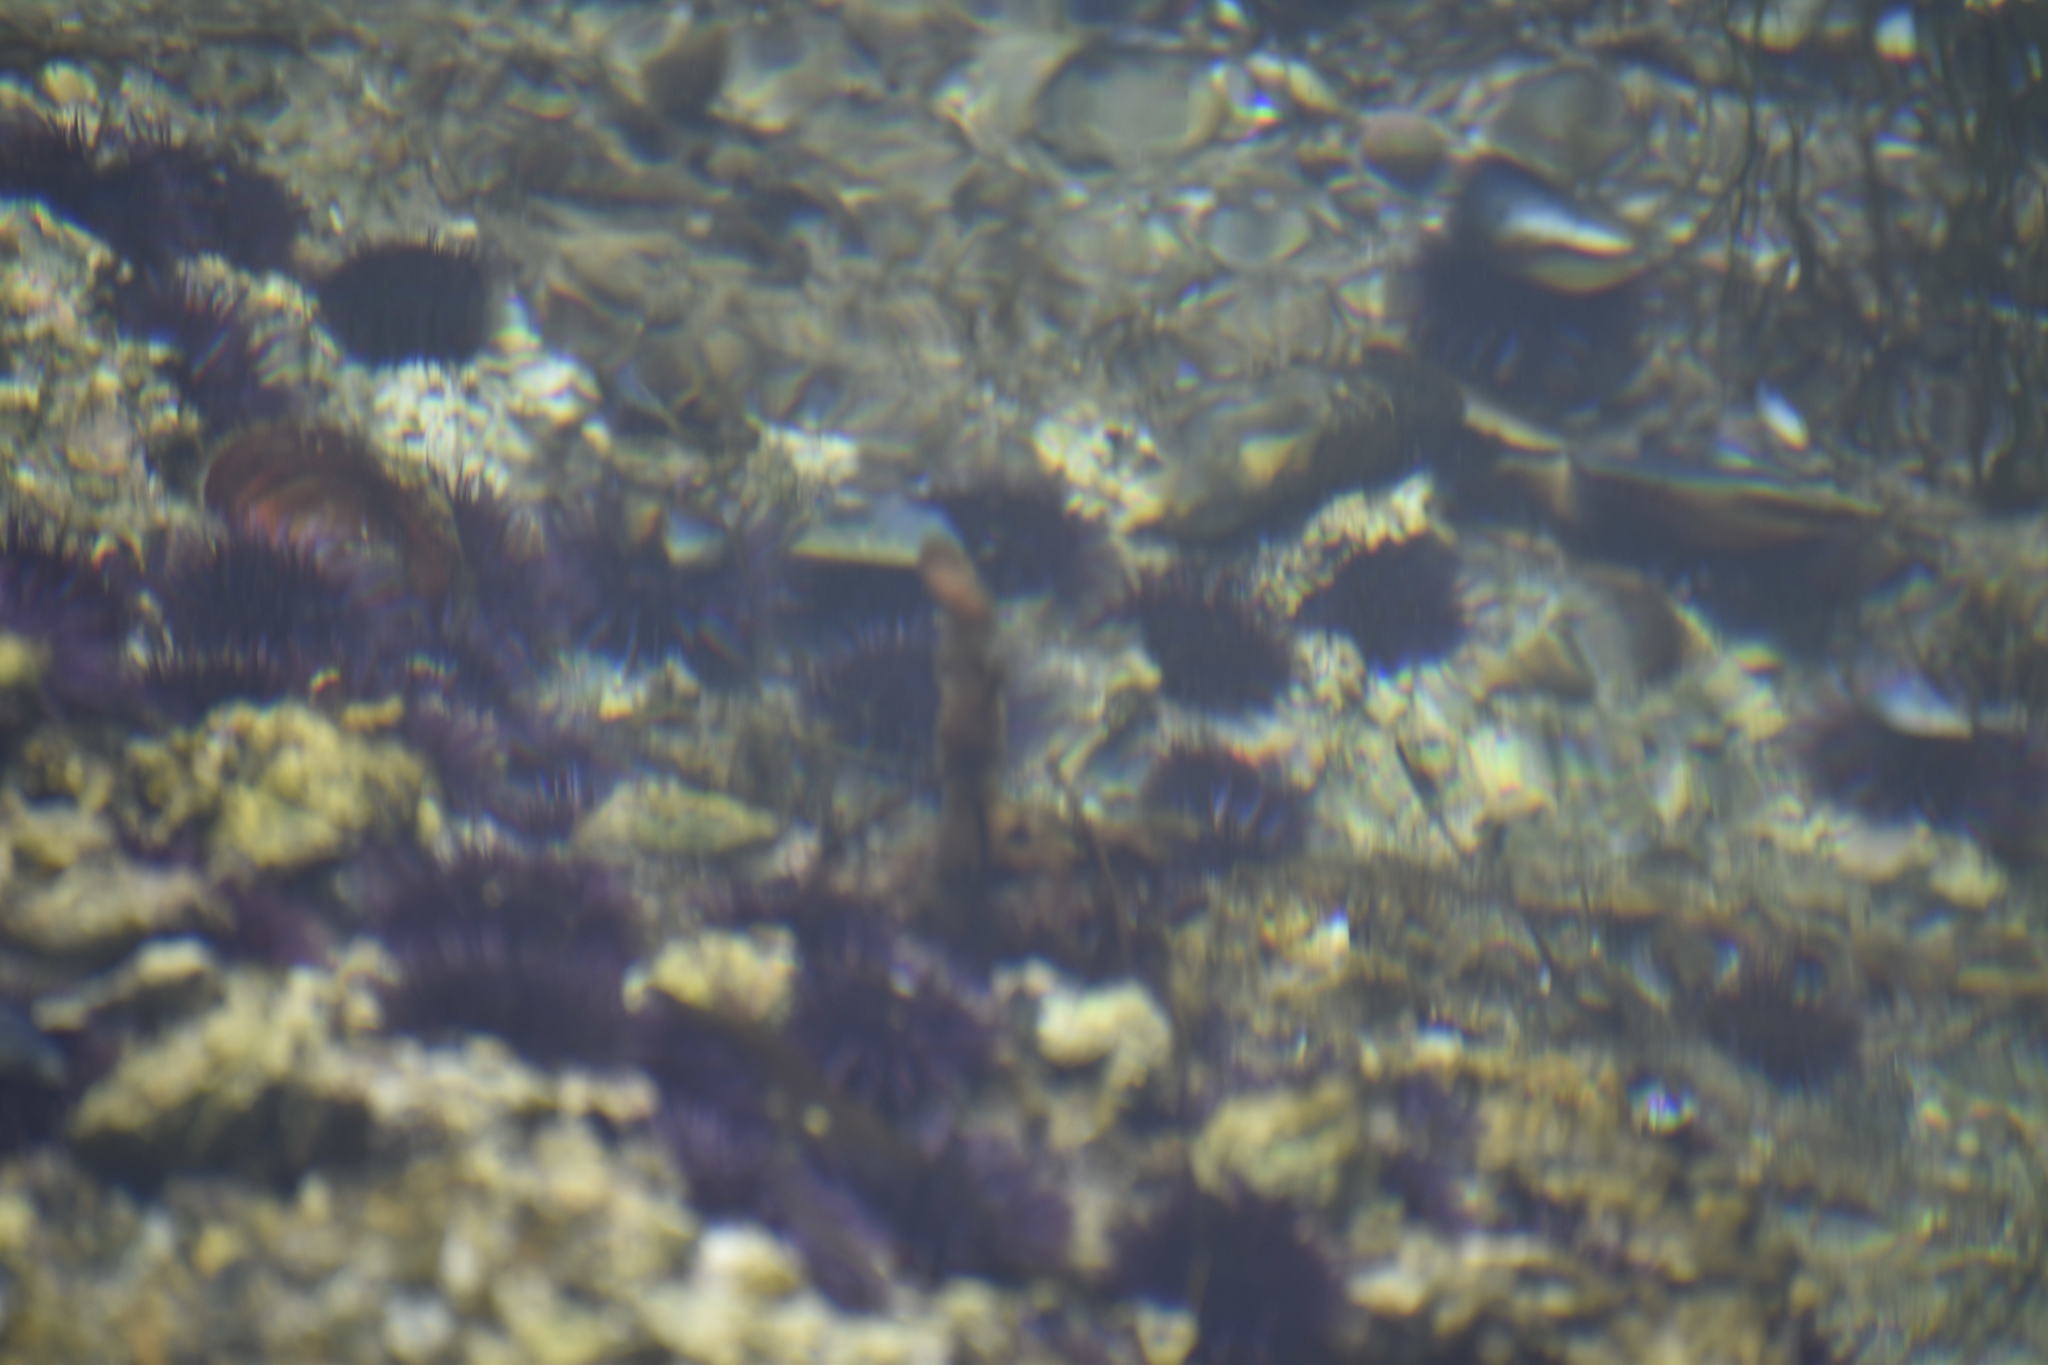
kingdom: Animalia
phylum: Echinodermata
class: Echinoidea
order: Camarodonta
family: Strongylocentrotidae
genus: Strongylocentrotus
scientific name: Strongylocentrotus purpuratus
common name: Purple sea urchin
